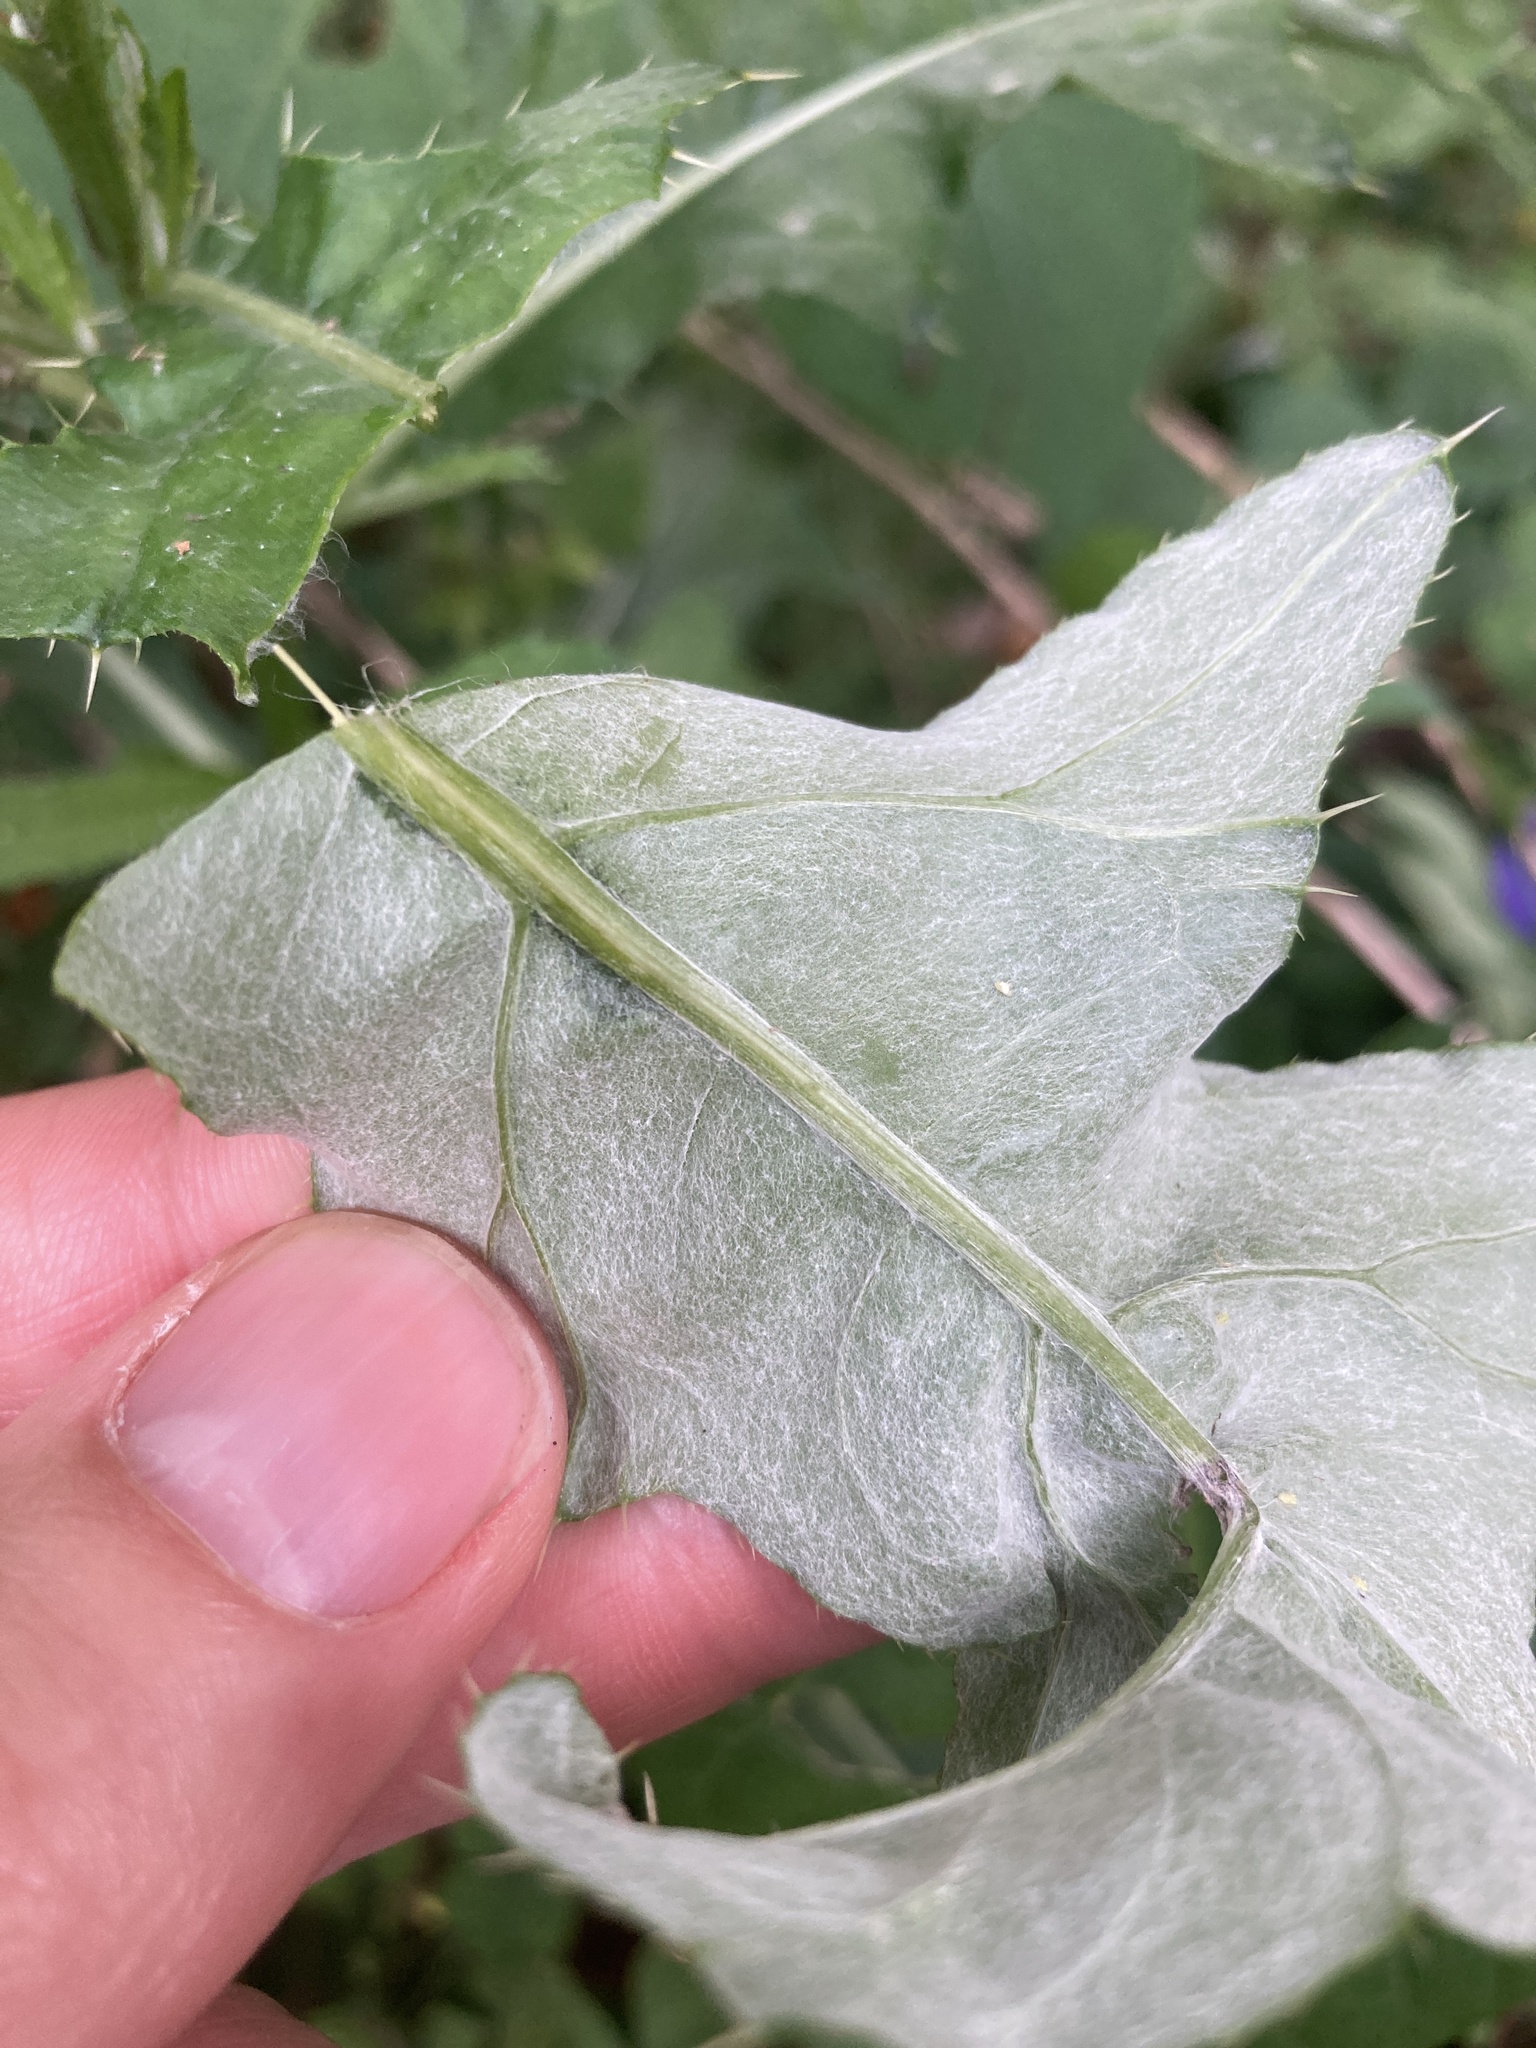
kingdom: Plantae
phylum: Tracheophyta
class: Magnoliopsida
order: Asterales
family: Asteraceae
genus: Cirsium
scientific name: Cirsium arvense
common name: Creeping thistle
